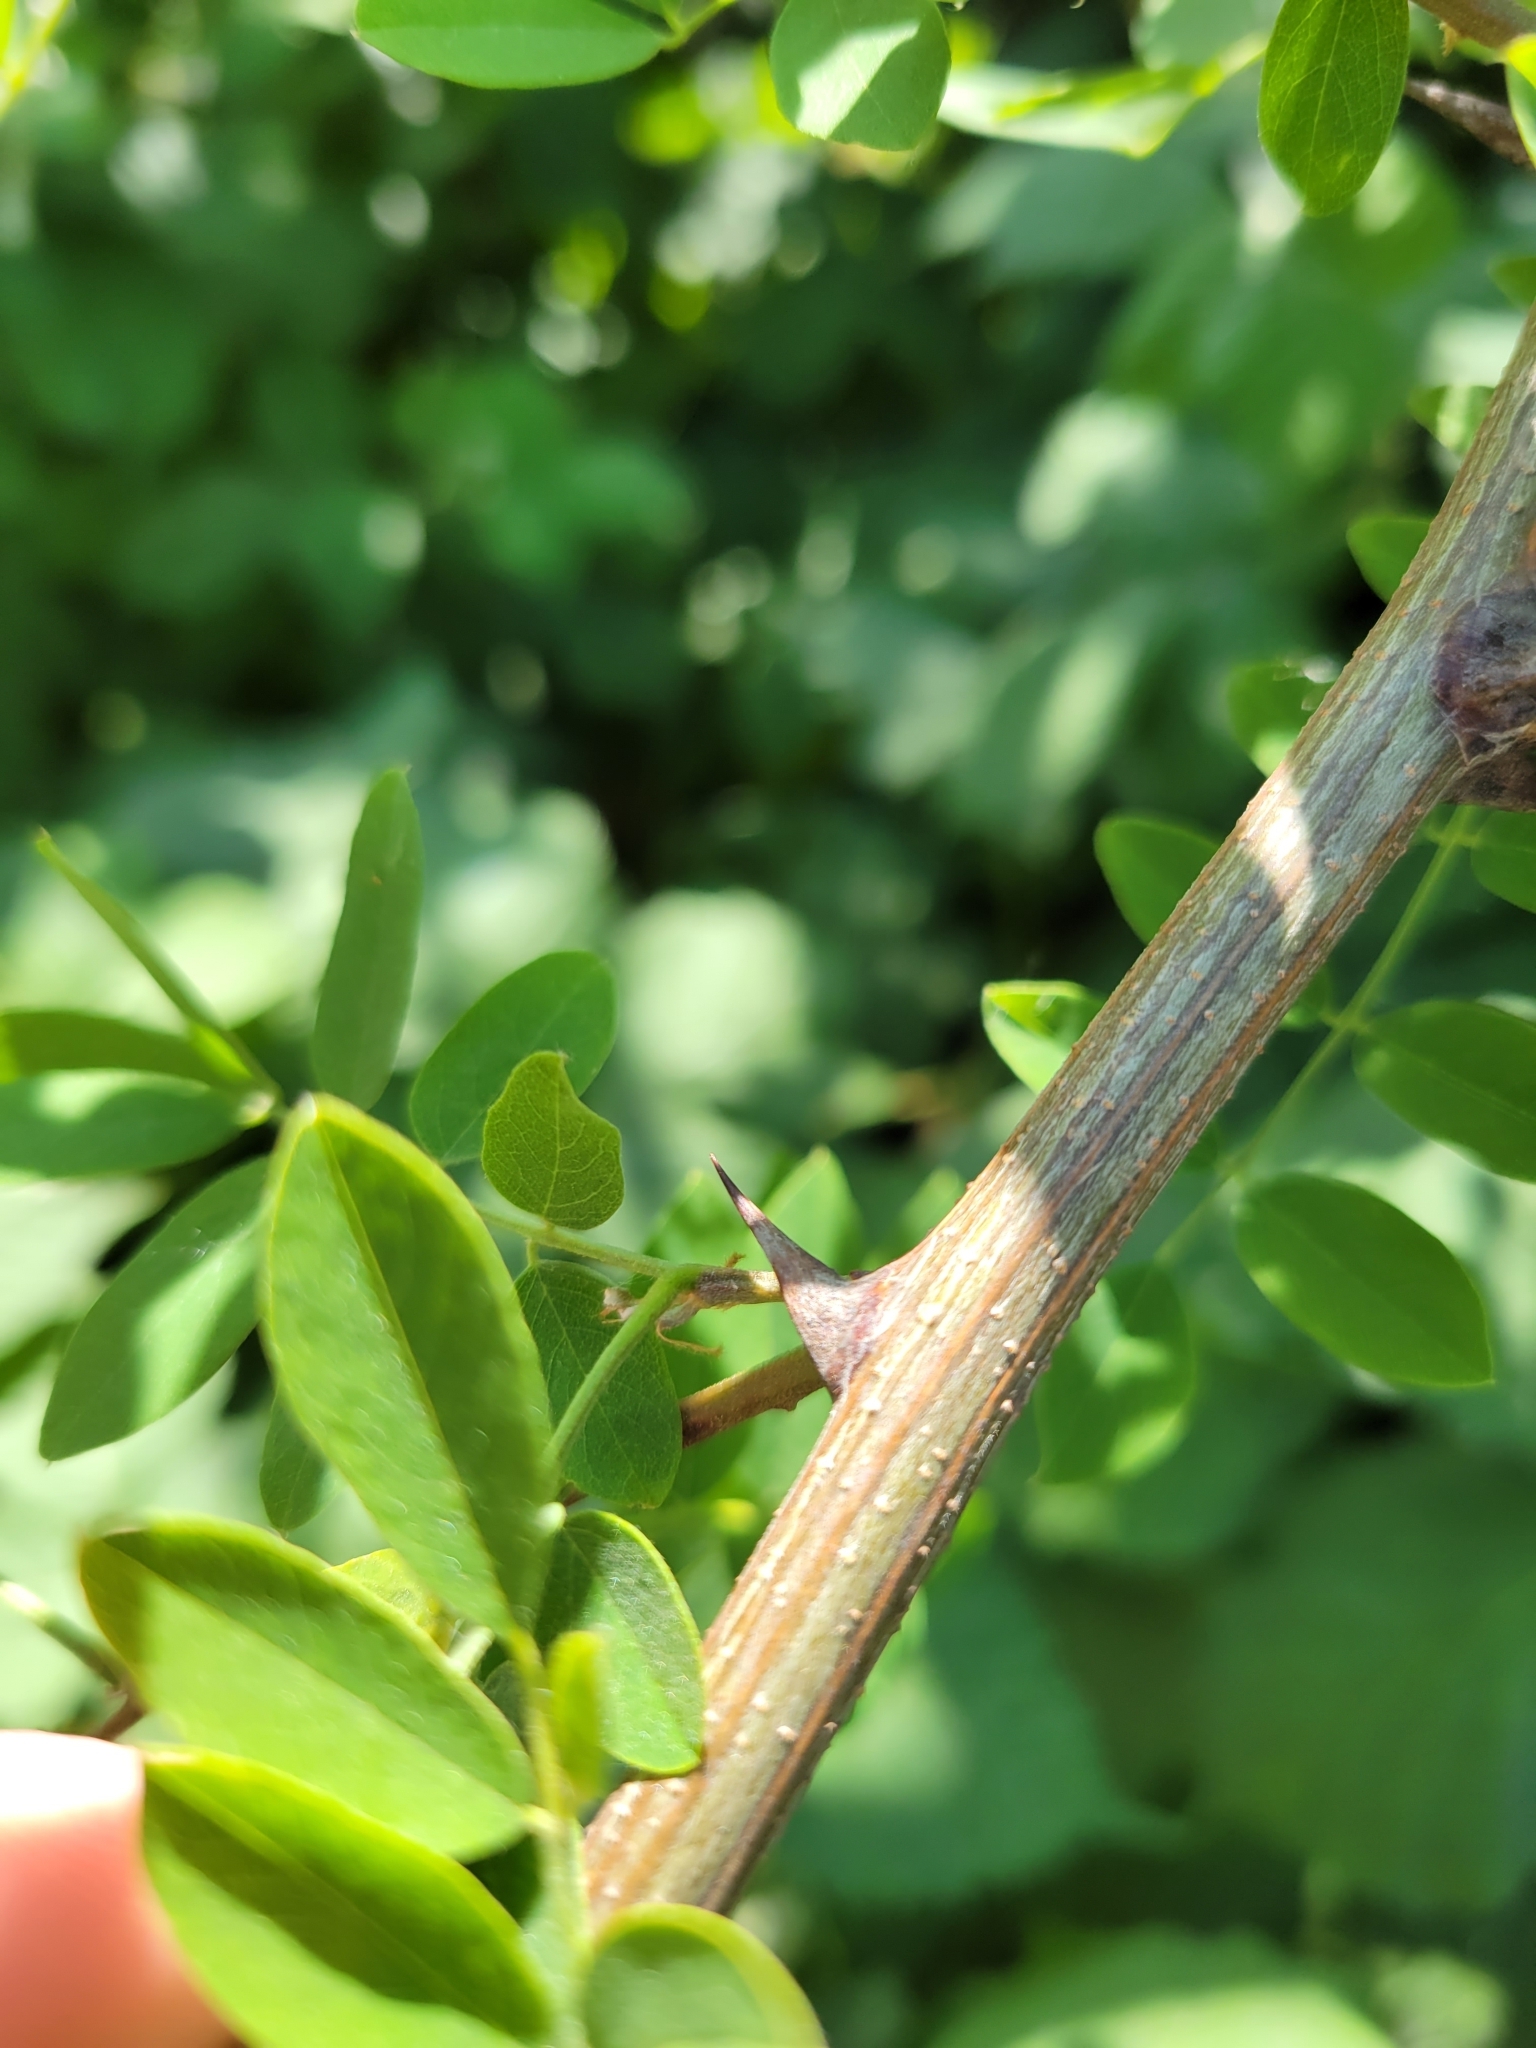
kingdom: Plantae
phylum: Tracheophyta
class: Magnoliopsida
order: Fabales
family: Fabaceae
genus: Robinia
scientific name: Robinia pseudoacacia
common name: Black locust
